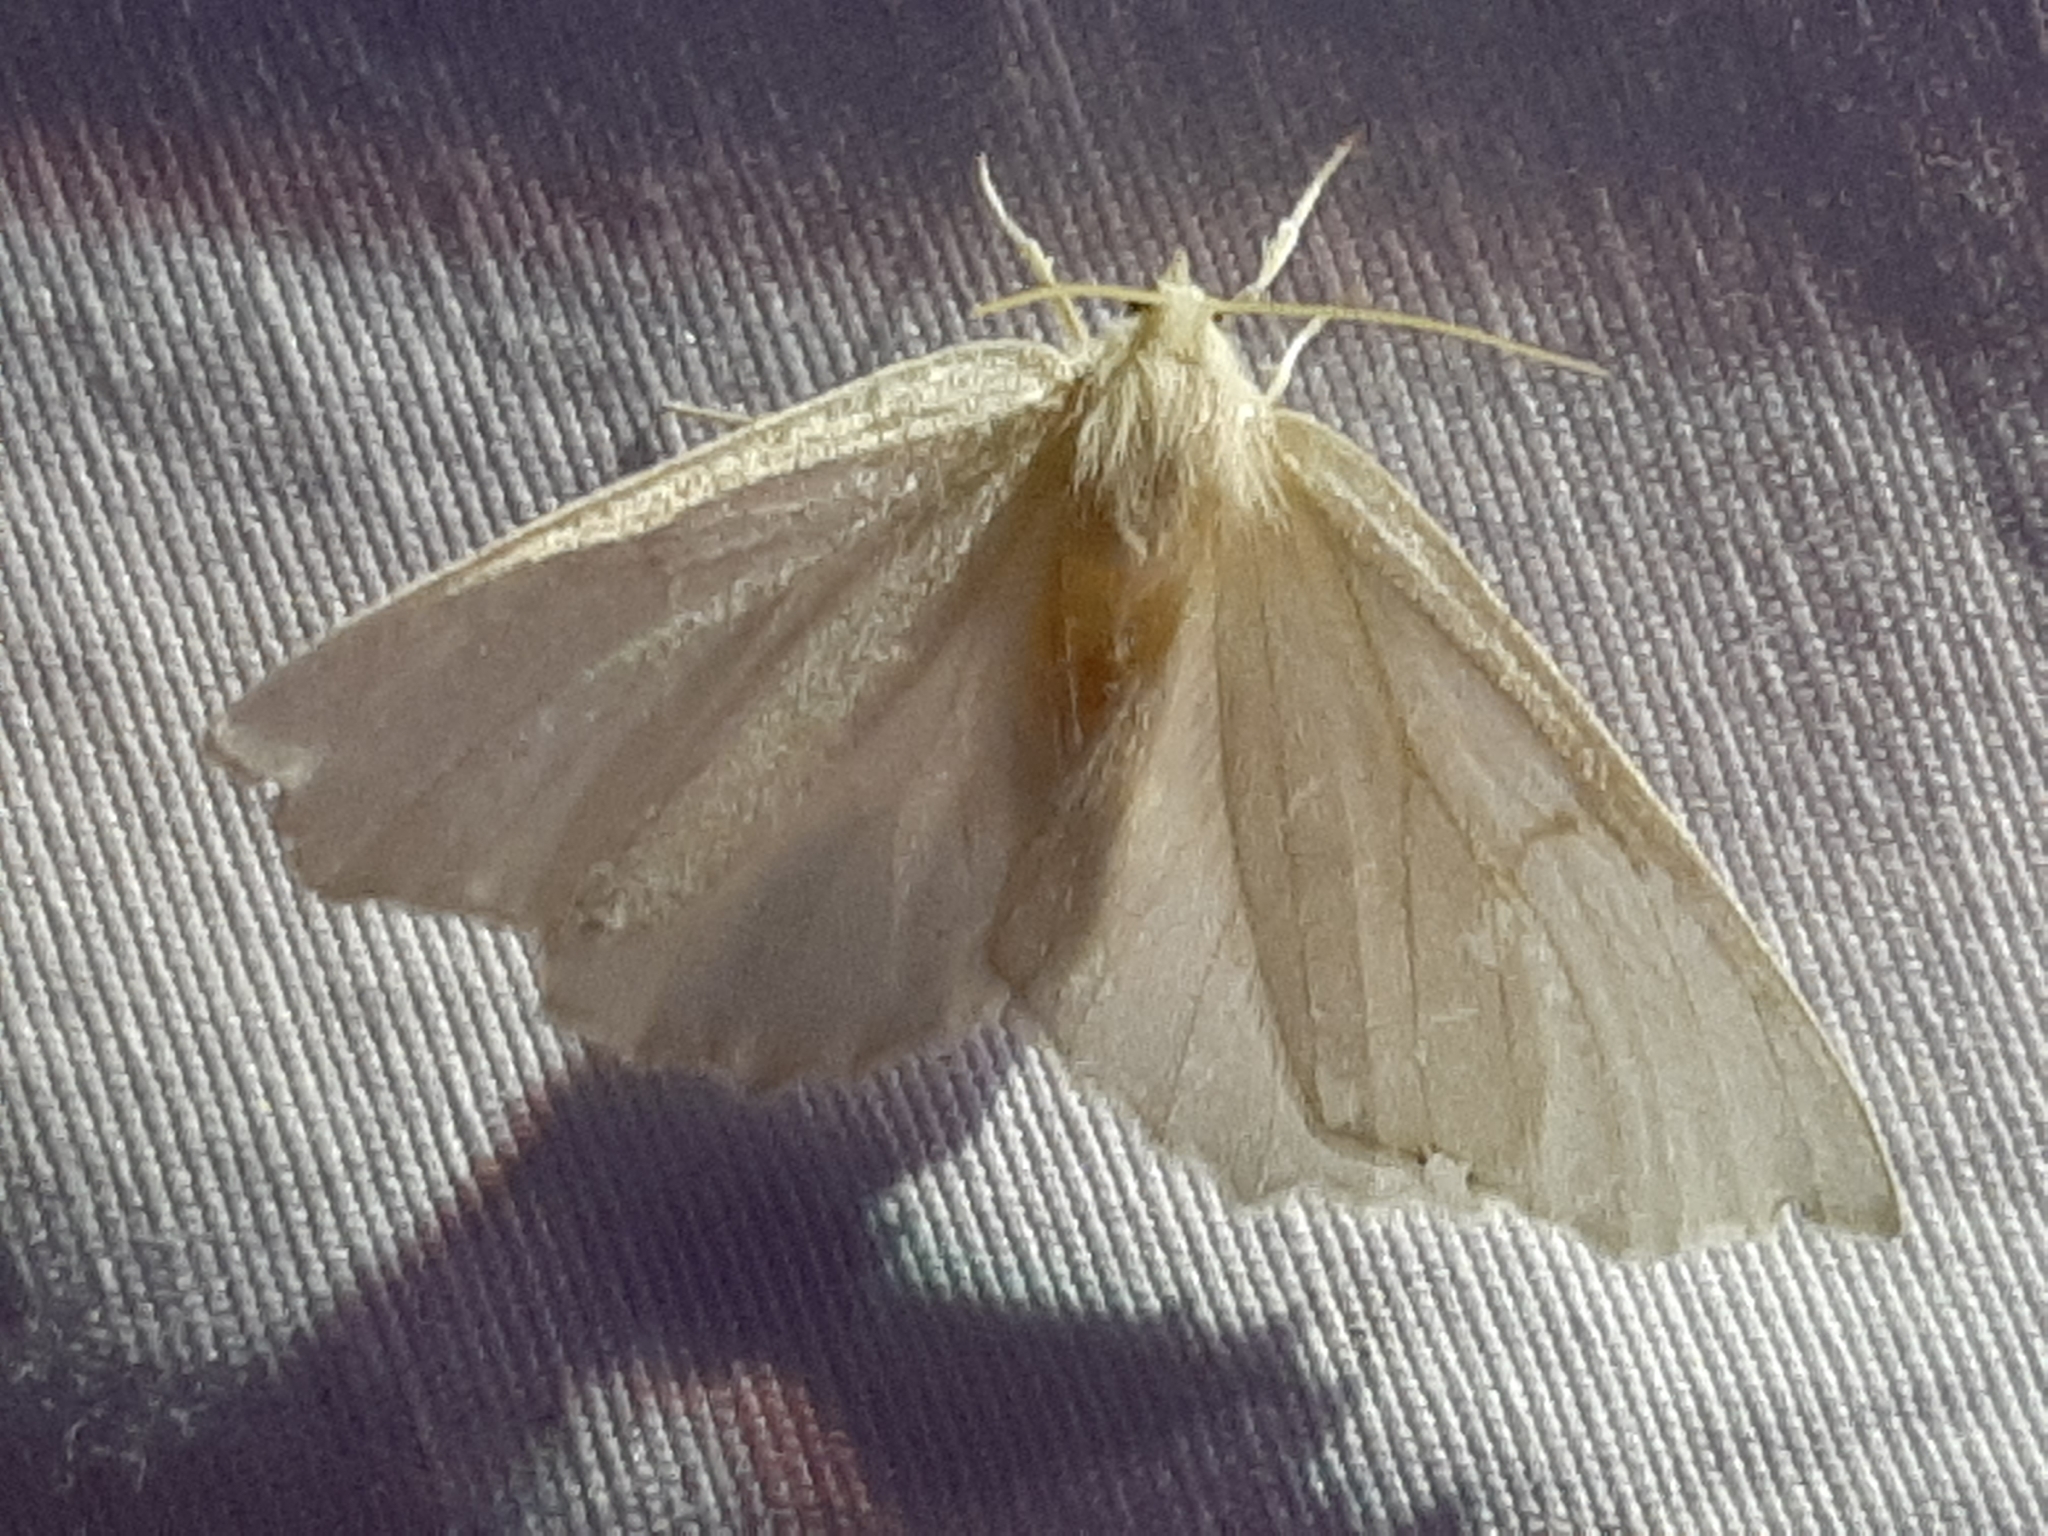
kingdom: Animalia
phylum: Arthropoda
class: Insecta
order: Lepidoptera
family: Geometridae
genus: Ennomos
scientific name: Ennomos subsignaria
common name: Elm spanworm
